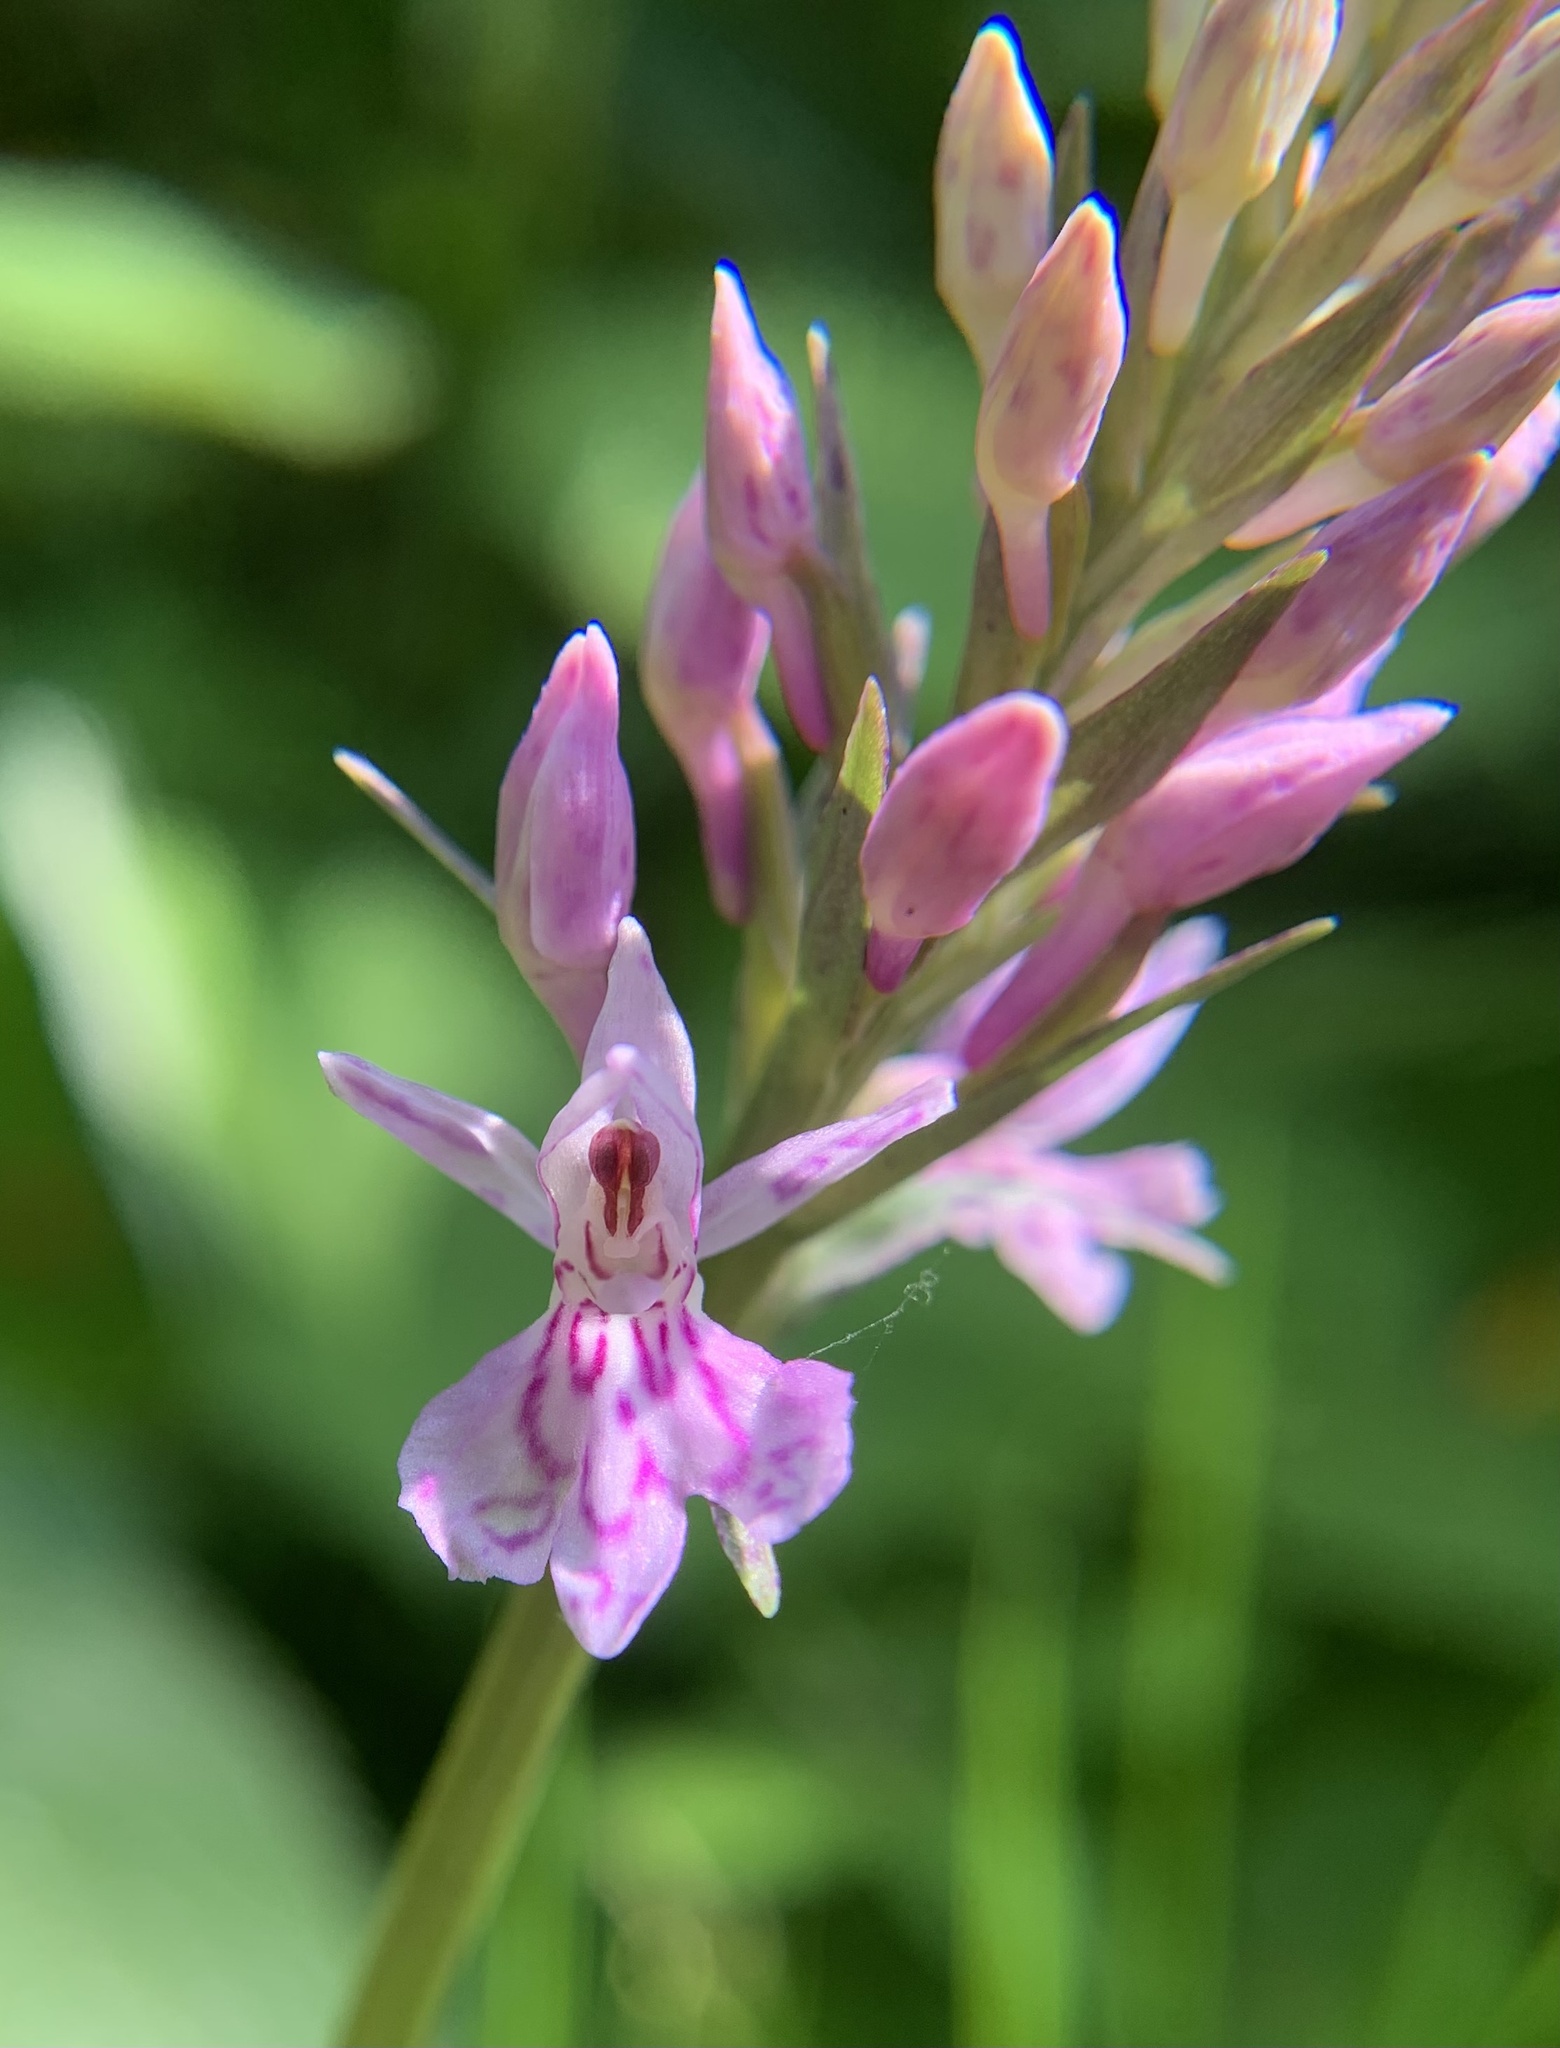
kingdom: Plantae
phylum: Tracheophyta
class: Liliopsida
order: Asparagales
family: Orchidaceae
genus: Dactylorhiza
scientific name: Dactylorhiza maculata
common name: Heath spotted-orchid
